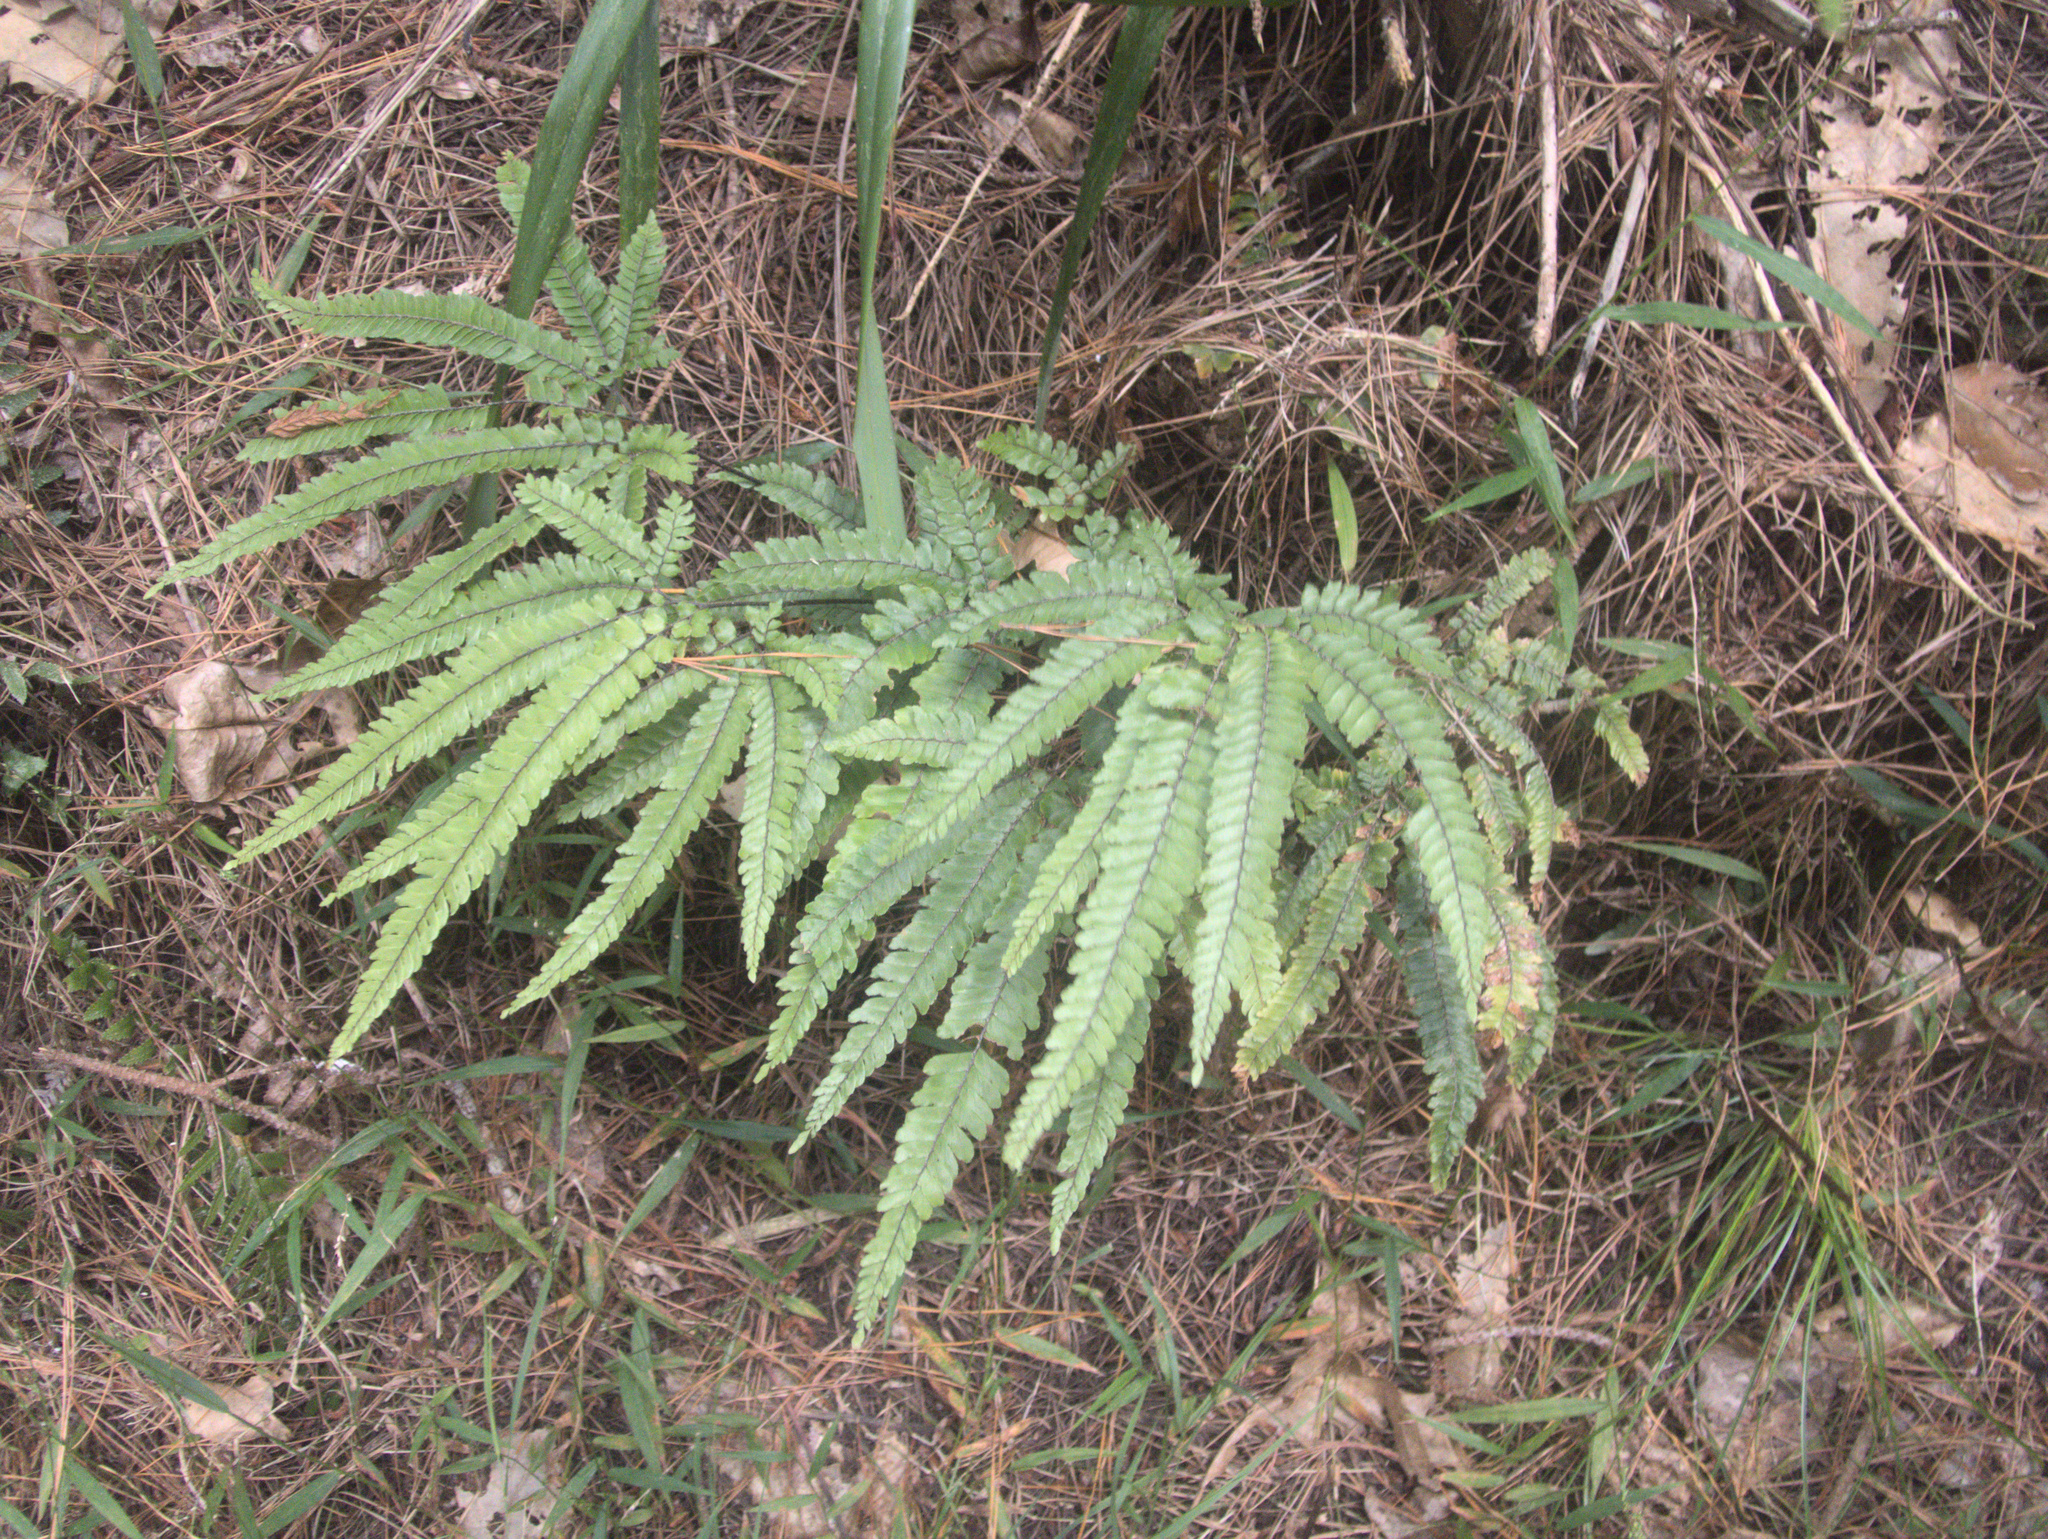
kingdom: Plantae
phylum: Tracheophyta
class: Polypodiopsida
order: Polypodiales
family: Pteridaceae
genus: Adiantum
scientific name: Adiantum hispidulum
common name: Rough maidenhair
